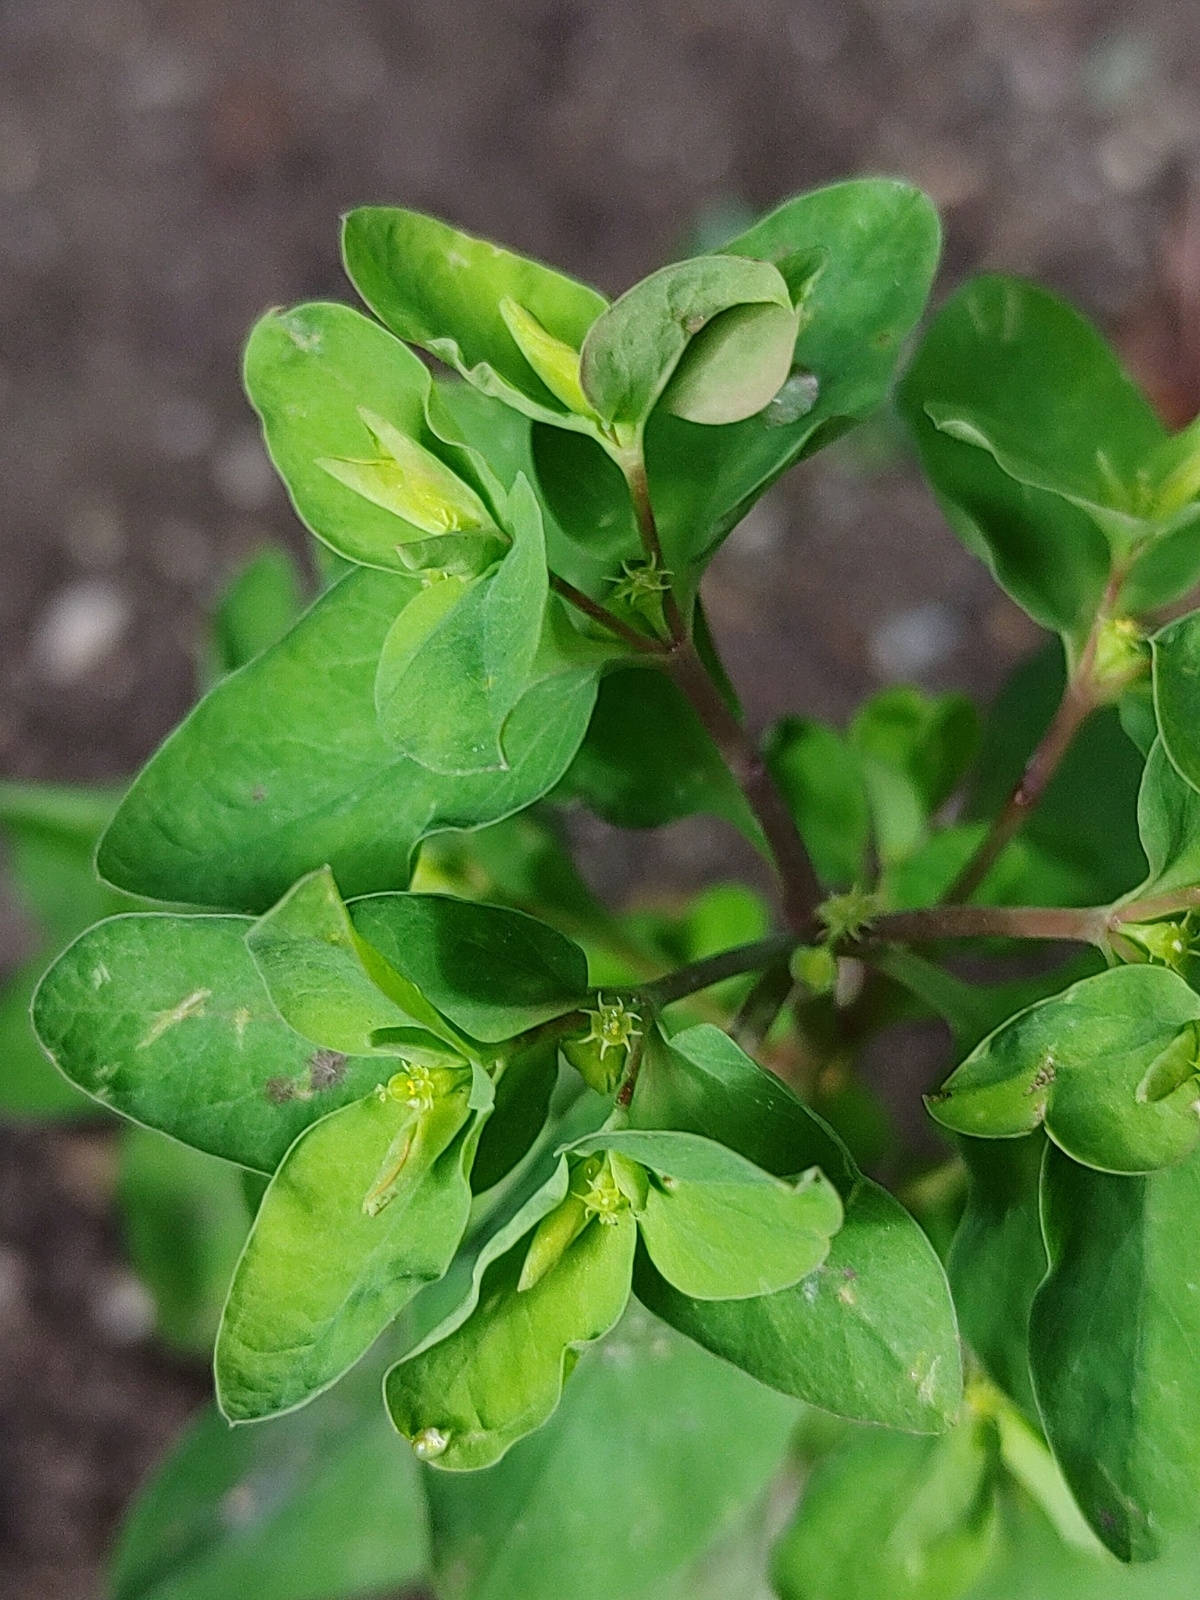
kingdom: Plantae
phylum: Tracheophyta
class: Magnoliopsida
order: Malpighiales
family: Euphorbiaceae
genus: Euphorbia
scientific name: Euphorbia peplus
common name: Petty spurge
